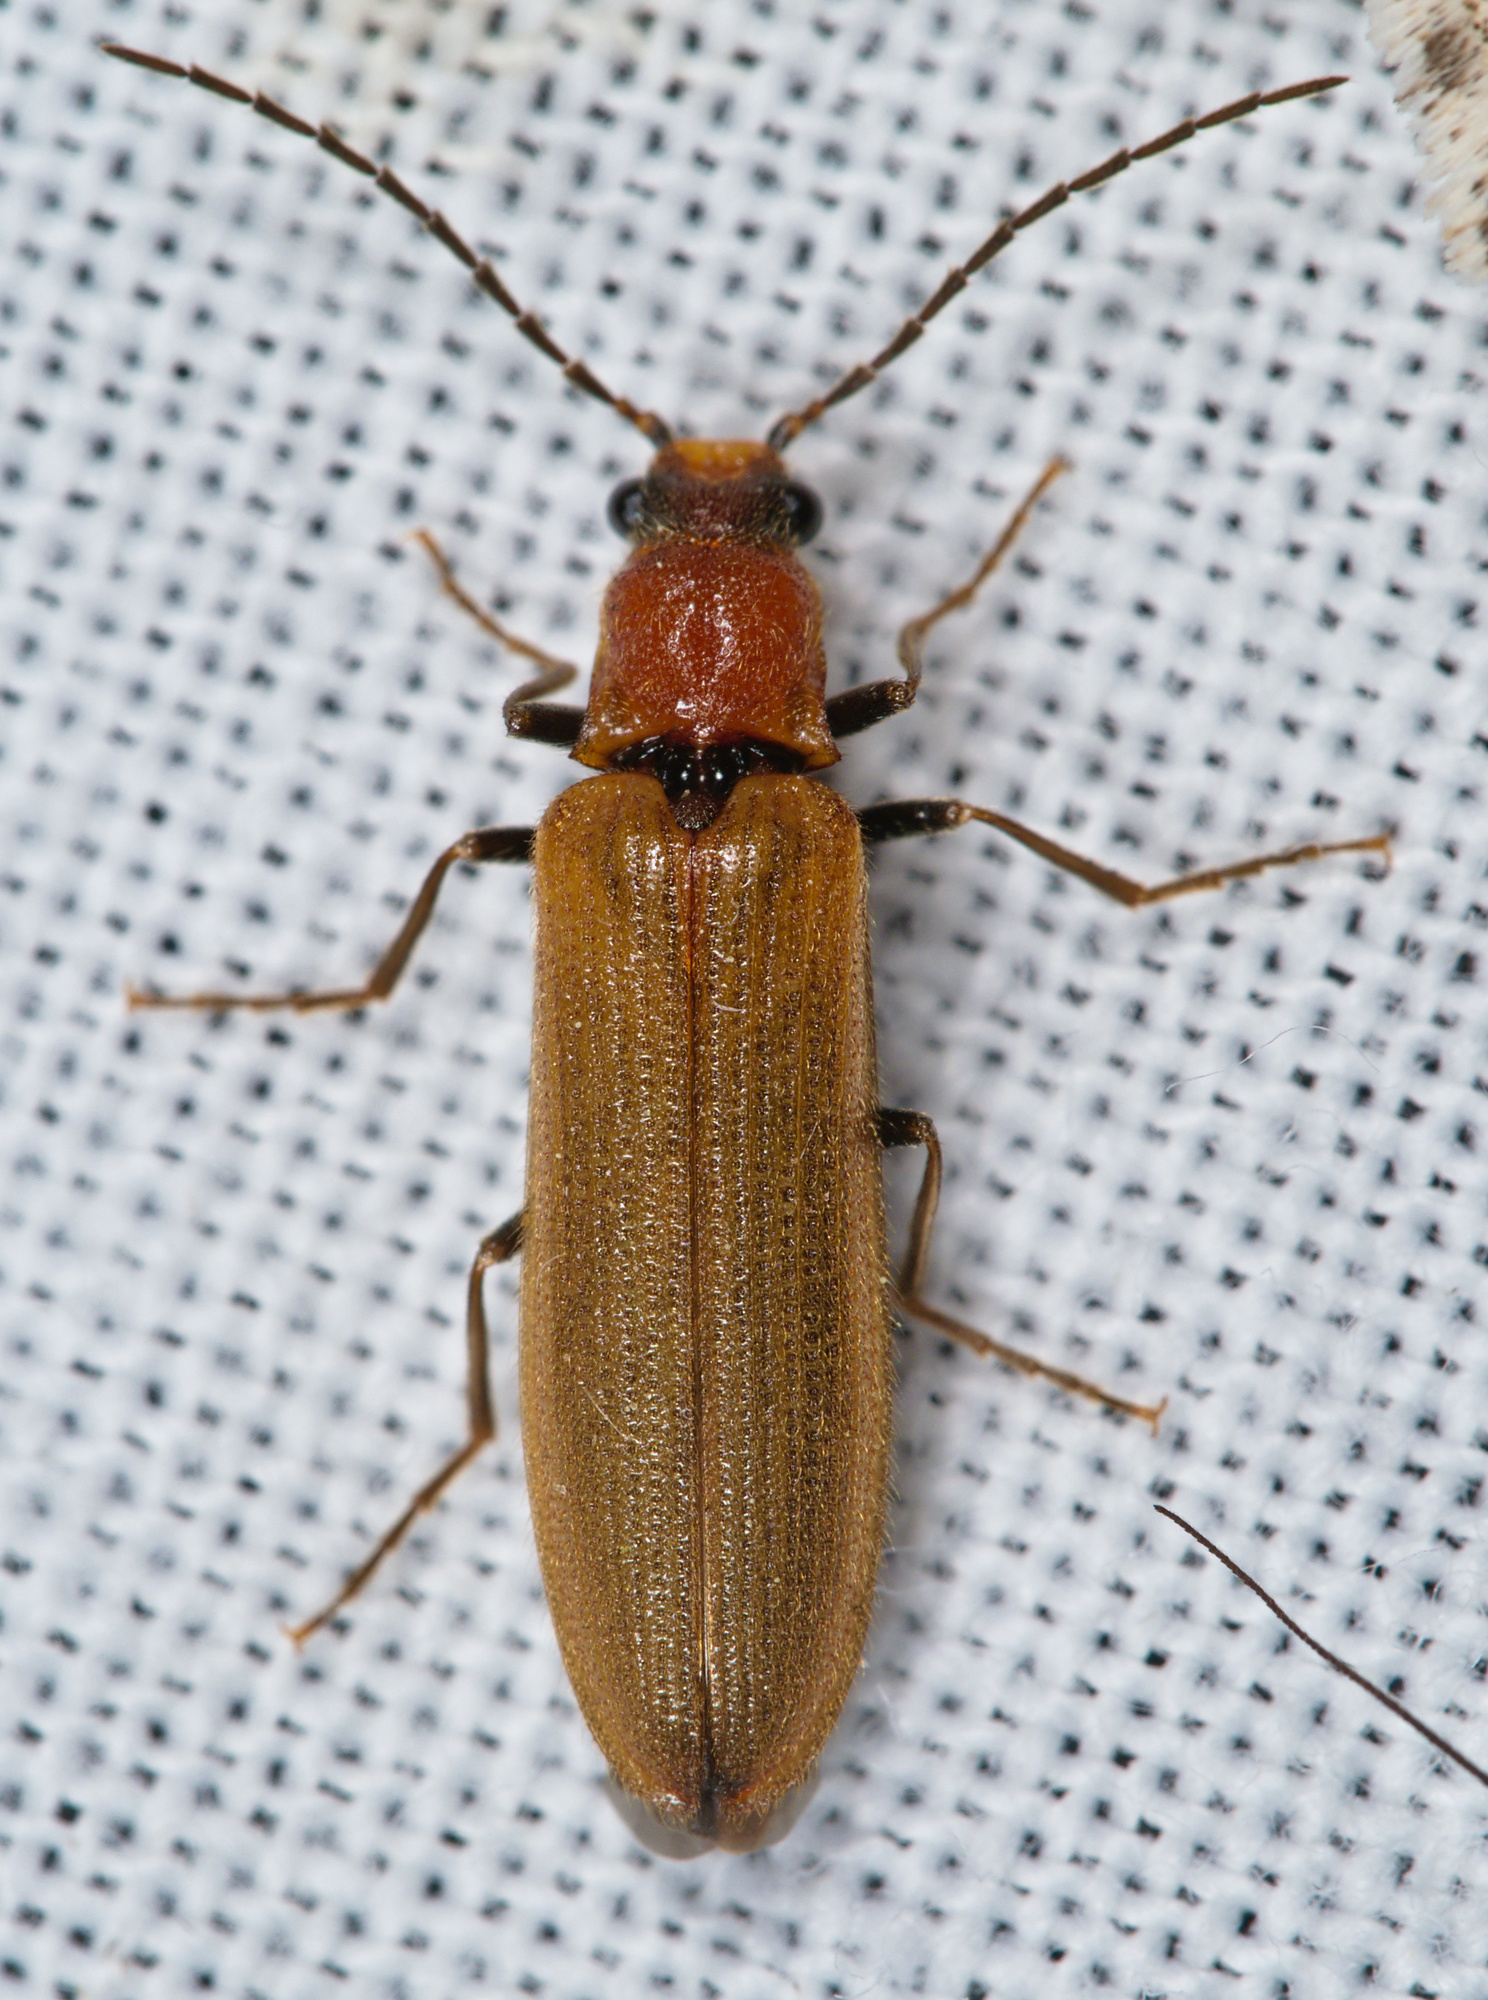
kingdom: Animalia
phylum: Arthropoda
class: Insecta
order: Coleoptera
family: Elateridae
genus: Denticollis
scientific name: Denticollis linearis
